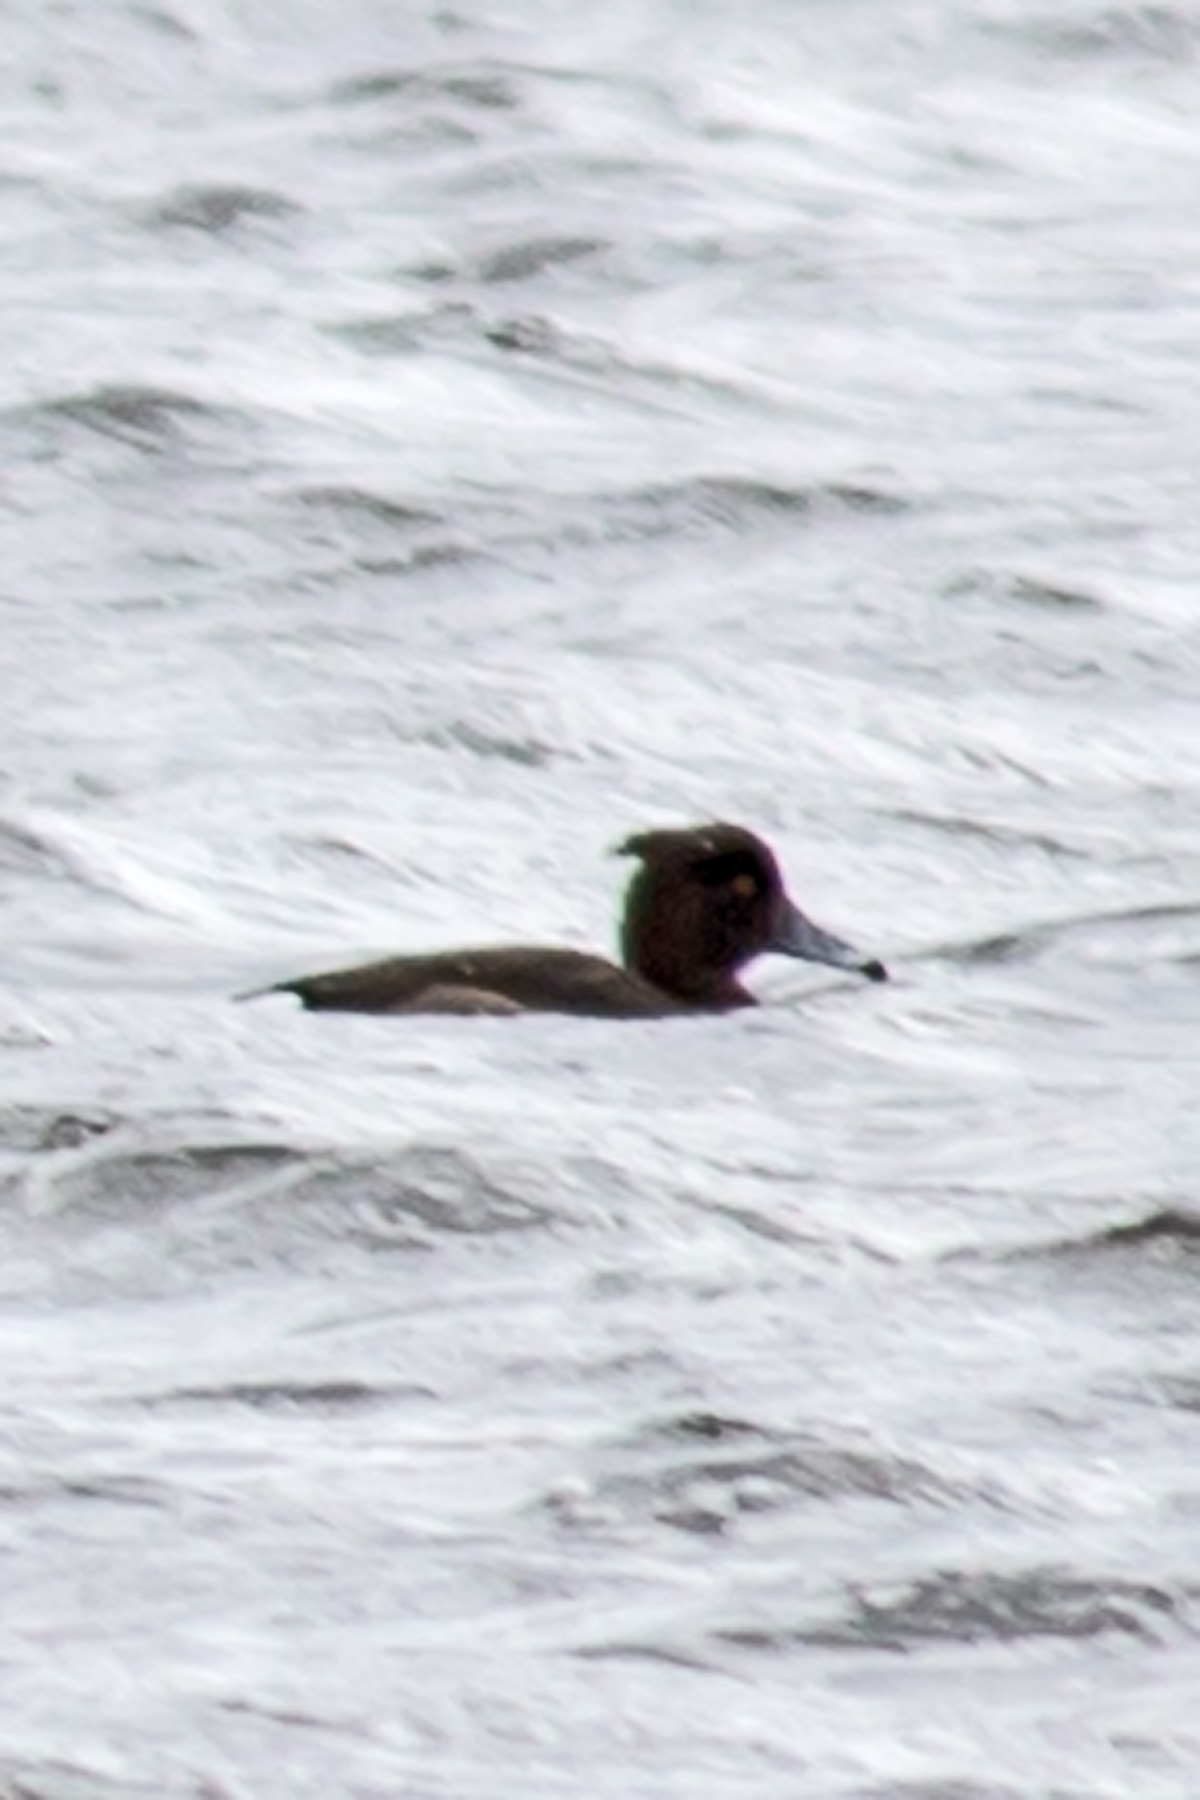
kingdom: Animalia
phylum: Chordata
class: Aves
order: Anseriformes
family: Anatidae
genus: Aythya
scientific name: Aythya fuligula
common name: Tufted duck
